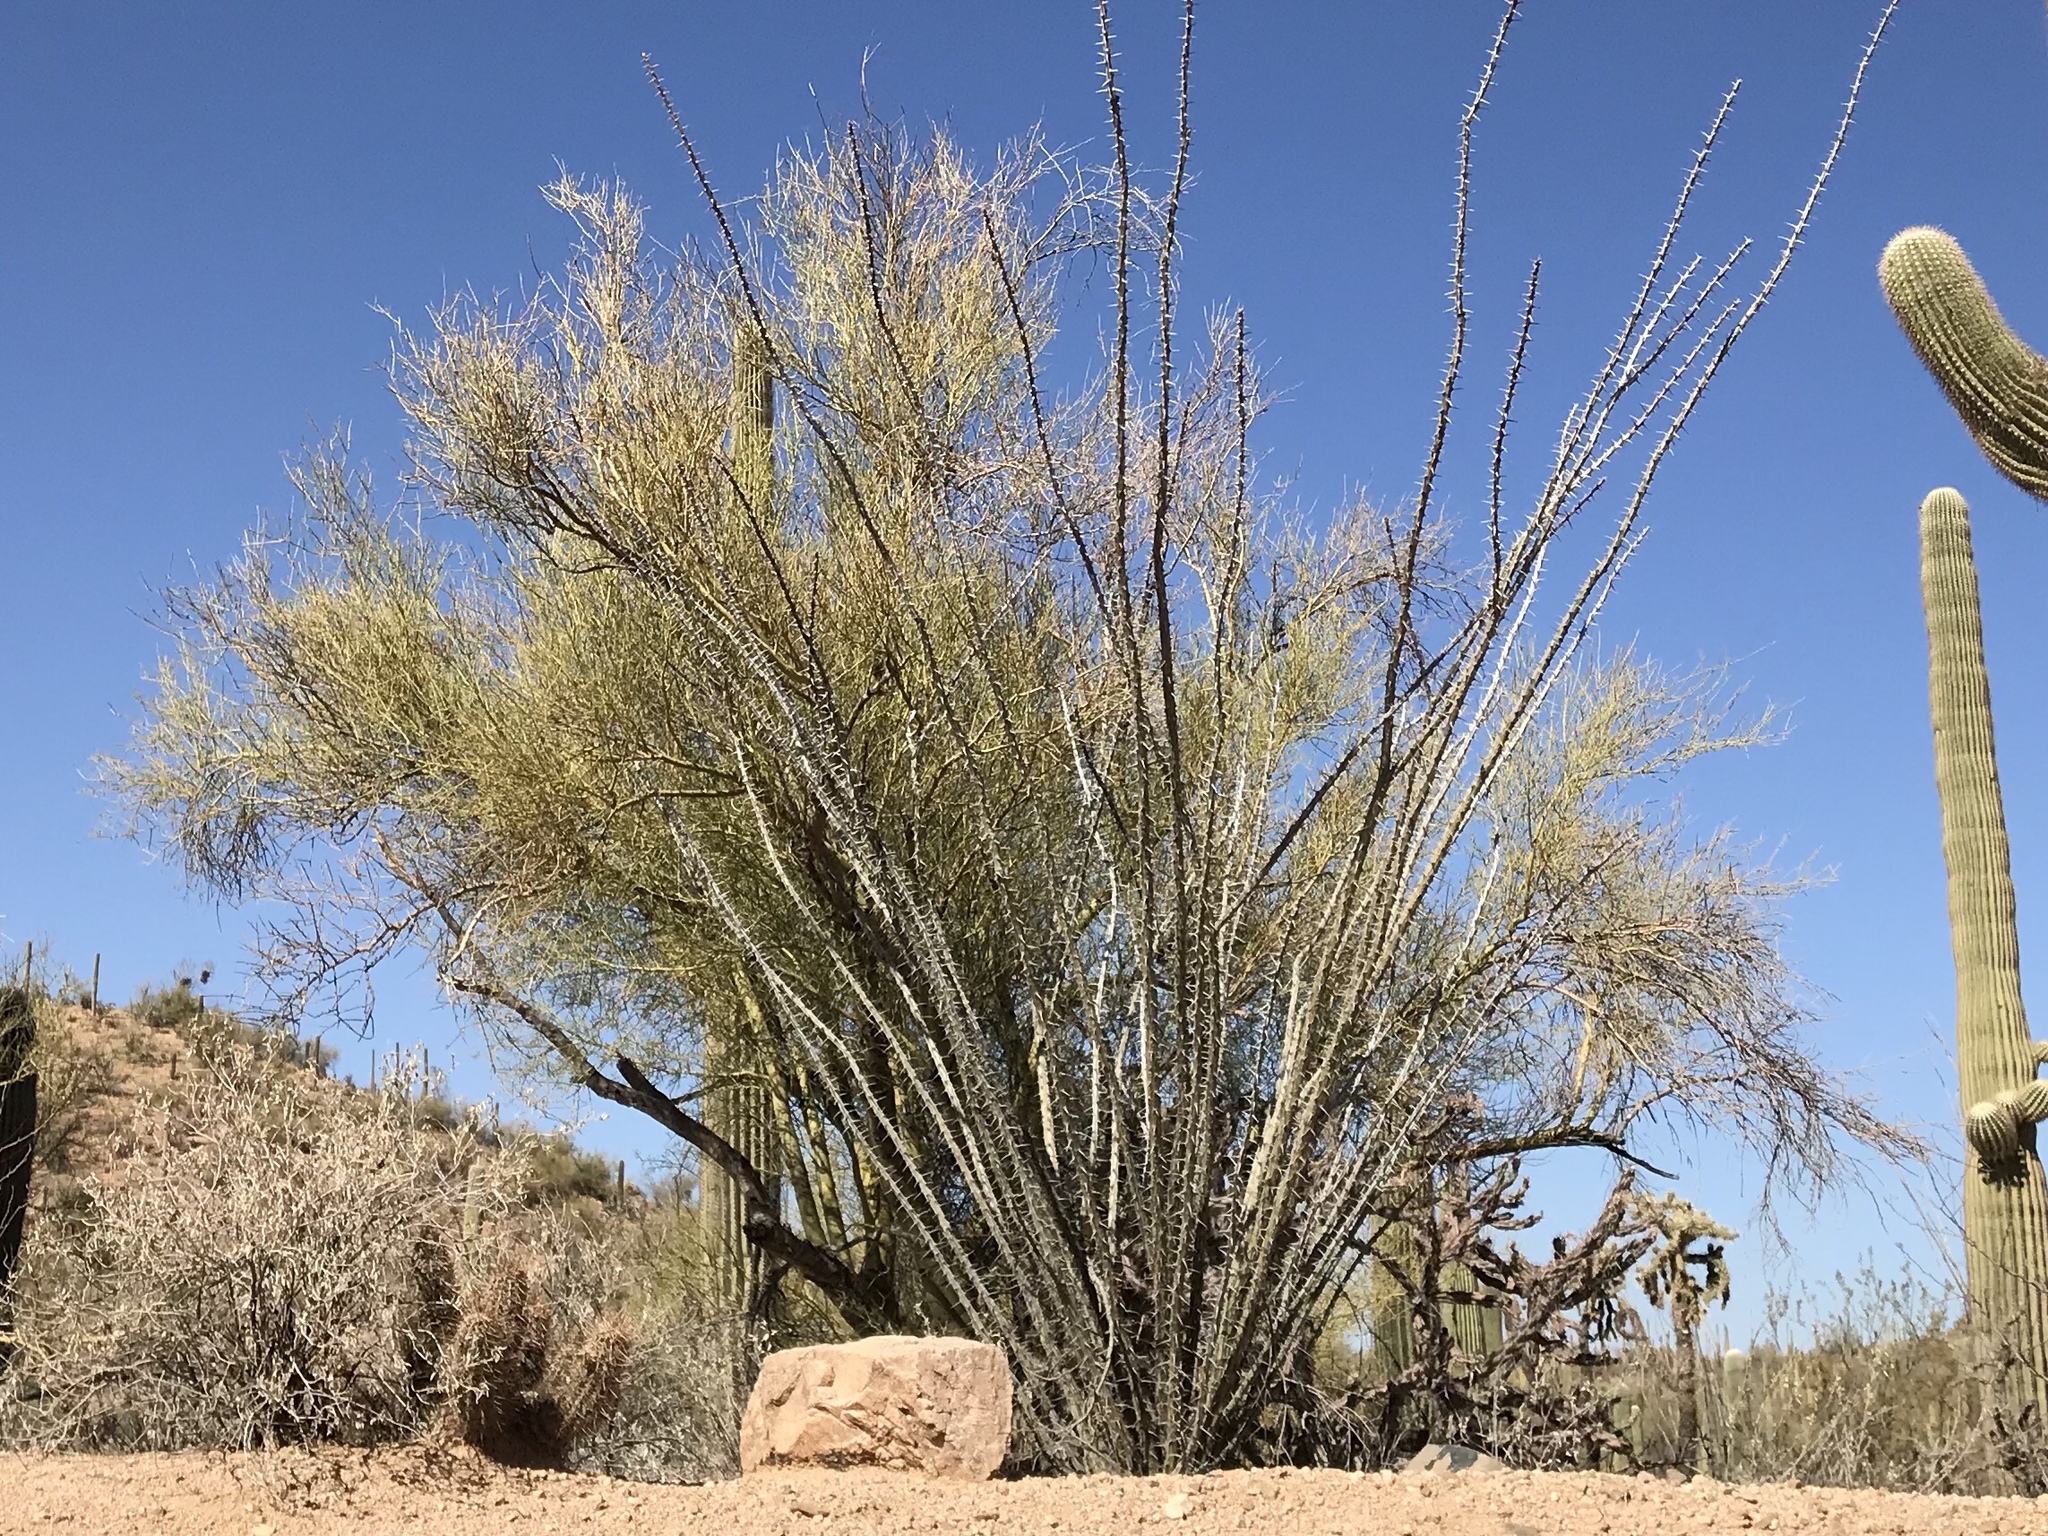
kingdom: Plantae
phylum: Tracheophyta
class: Magnoliopsida
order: Fabales
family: Fabaceae
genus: Parkinsonia
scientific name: Parkinsonia microphylla
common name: Yellow paloverde
